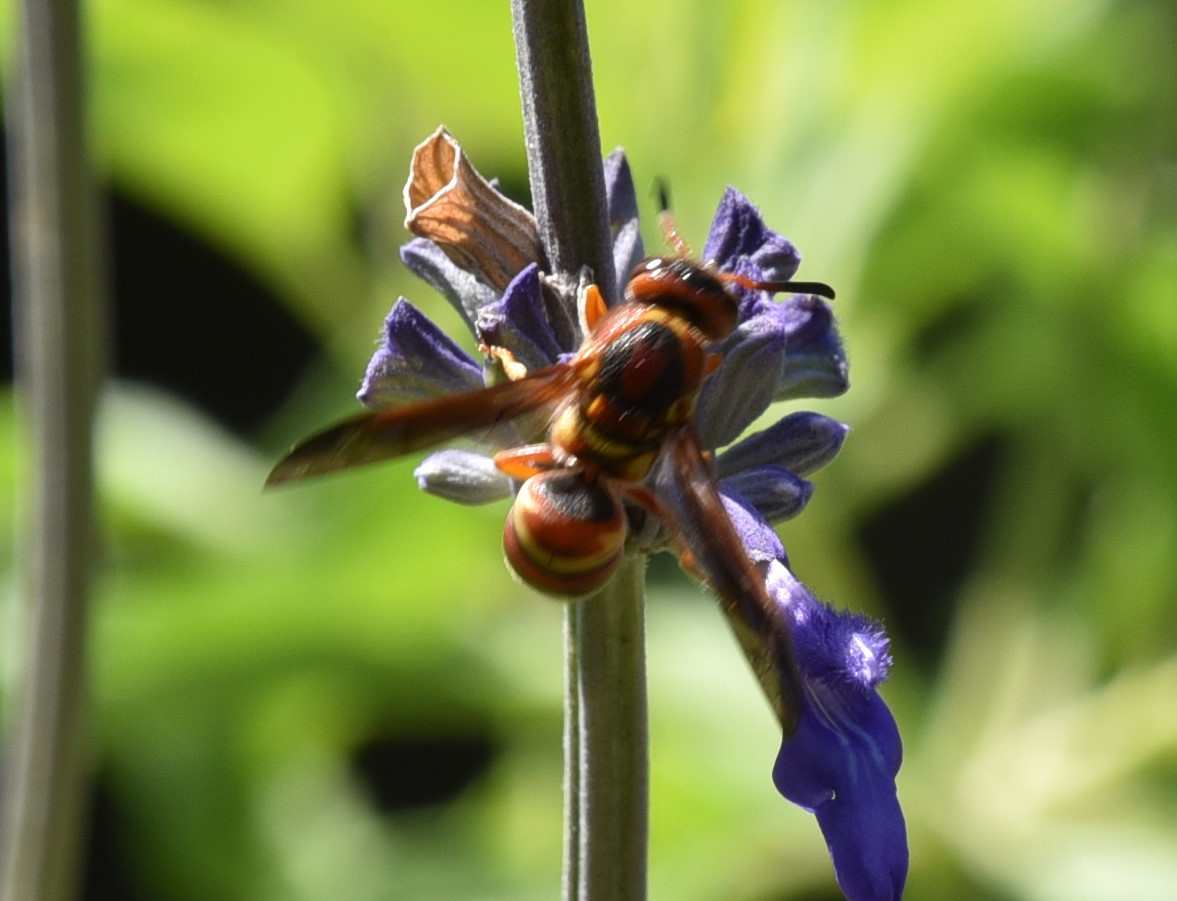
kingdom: Animalia
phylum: Arthropoda
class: Insecta
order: Hymenoptera
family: Eumenidae
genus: Euodynerus
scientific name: Euodynerus pratensis
